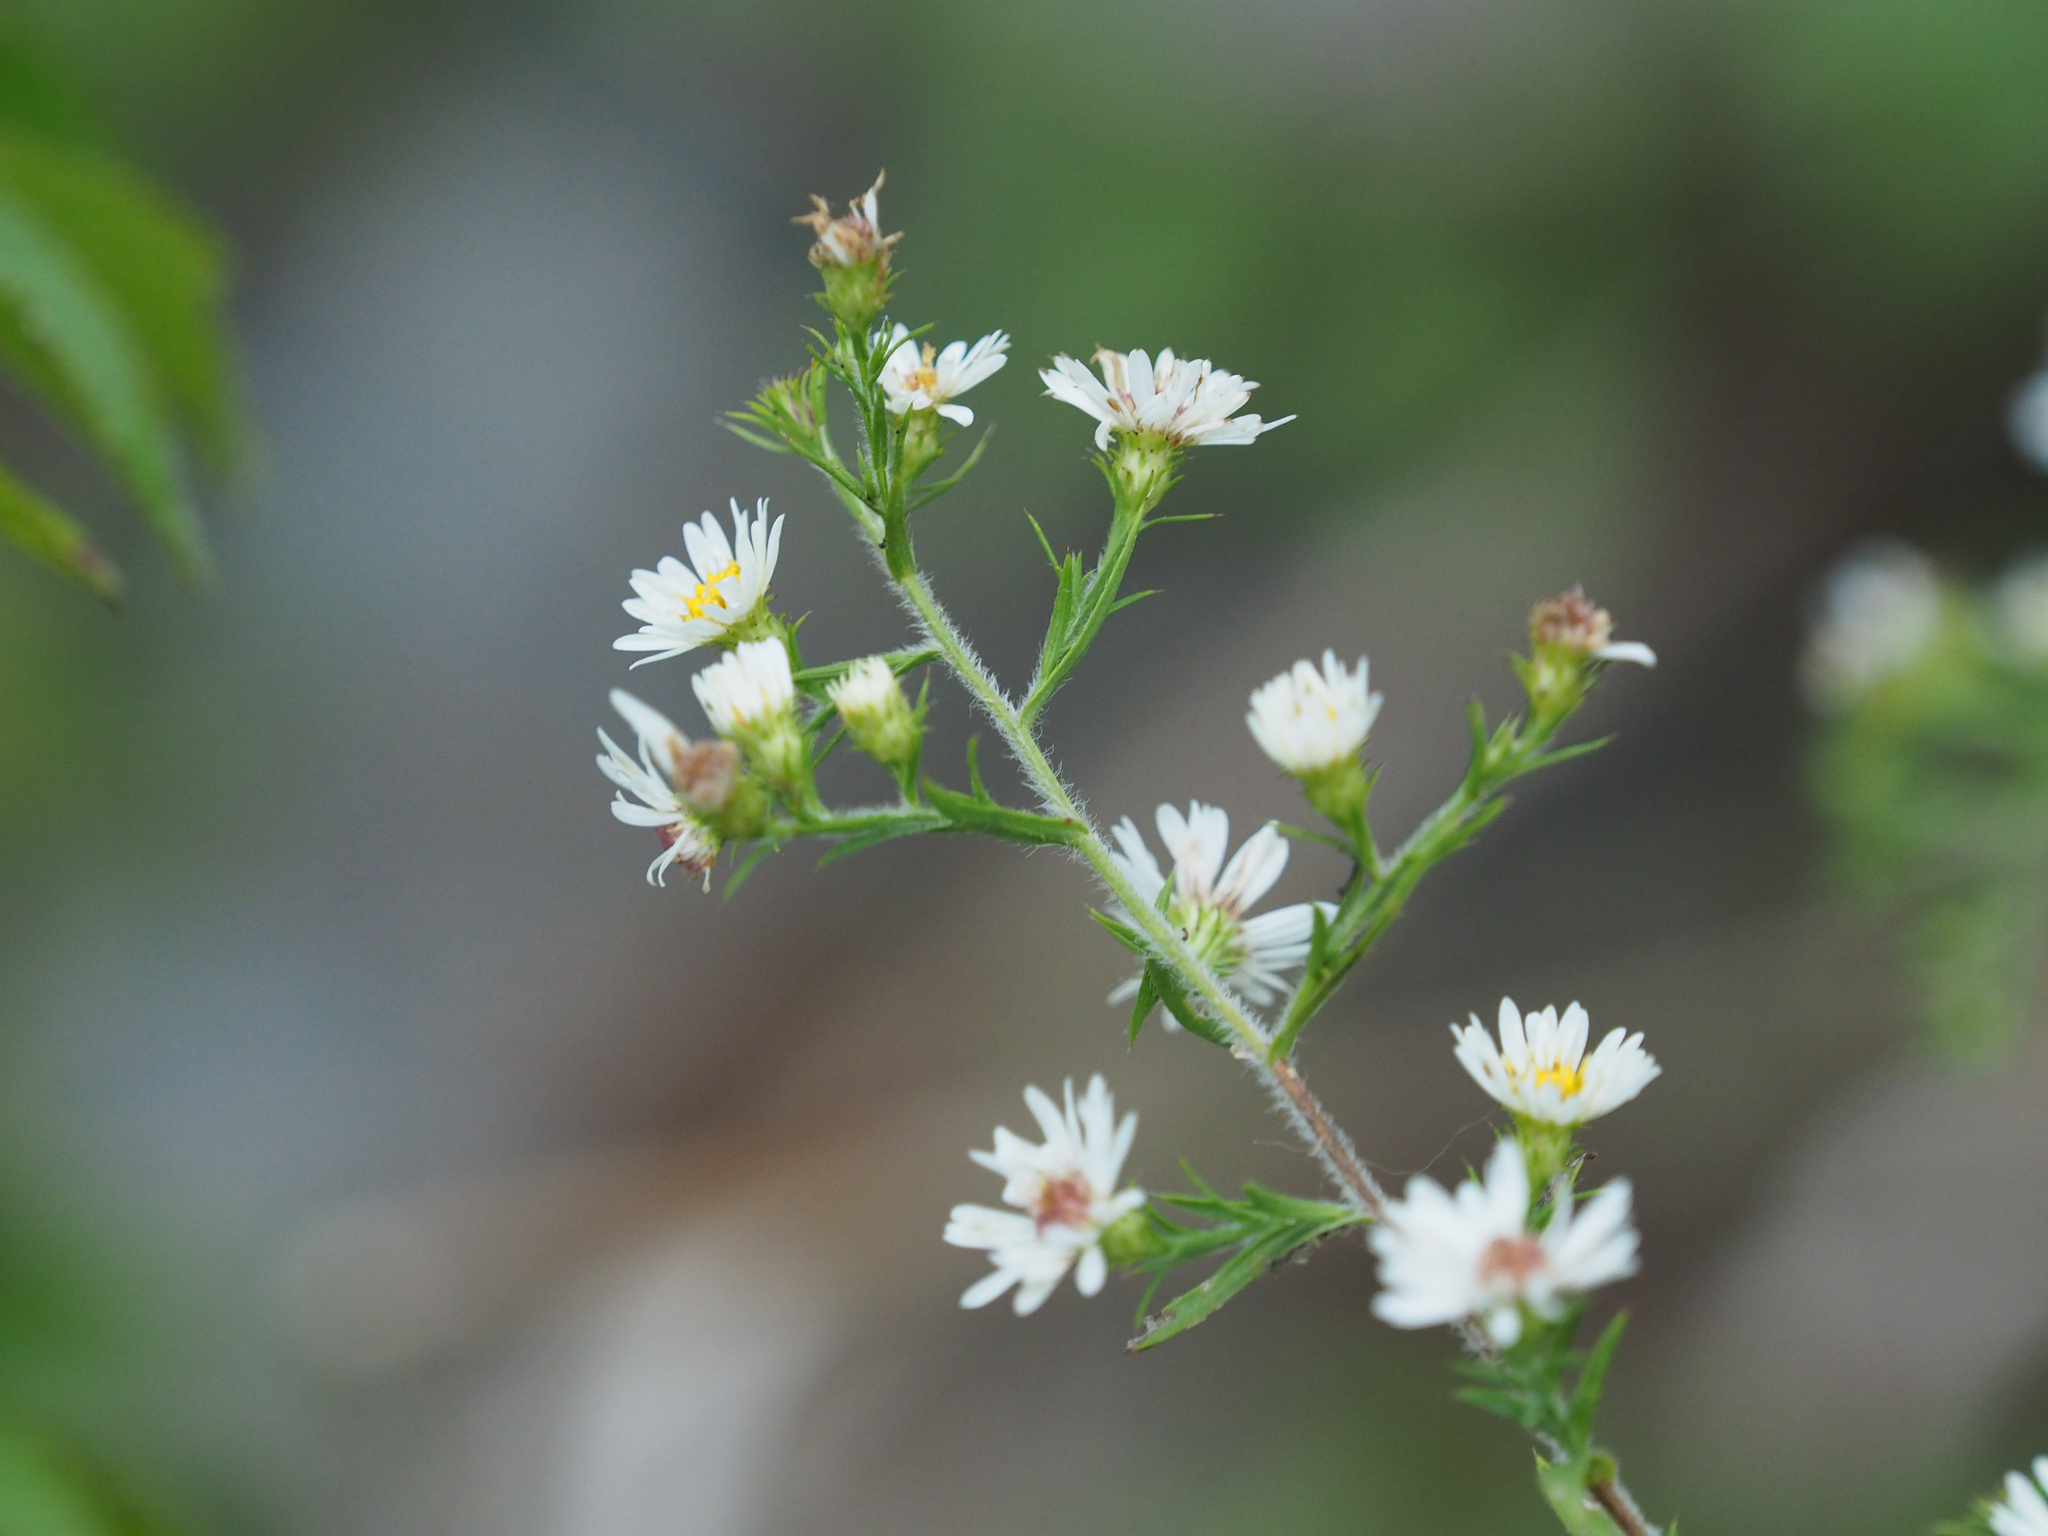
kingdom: Plantae
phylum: Tracheophyta
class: Magnoliopsida
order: Asterales
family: Asteraceae
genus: Symphyotrichum
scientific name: Symphyotrichum pilosum
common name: Awl aster
